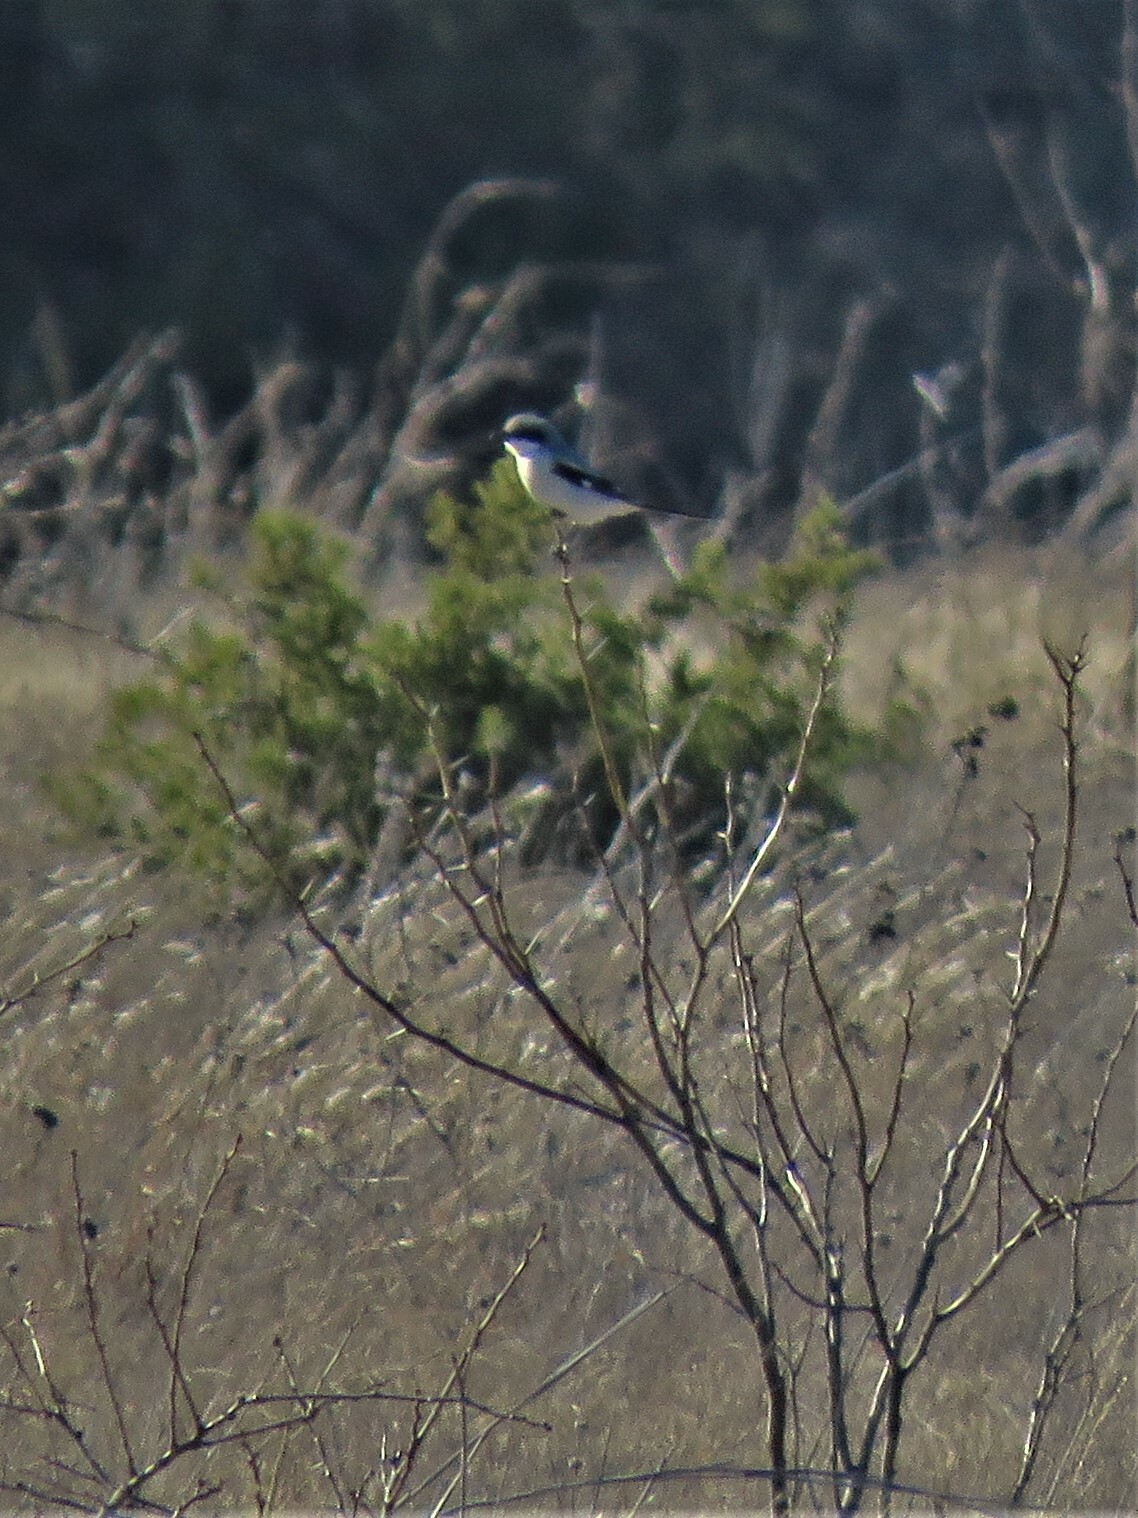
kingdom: Animalia
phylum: Chordata
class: Aves
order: Passeriformes
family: Laniidae
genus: Lanius
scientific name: Lanius ludovicianus
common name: Loggerhead shrike
